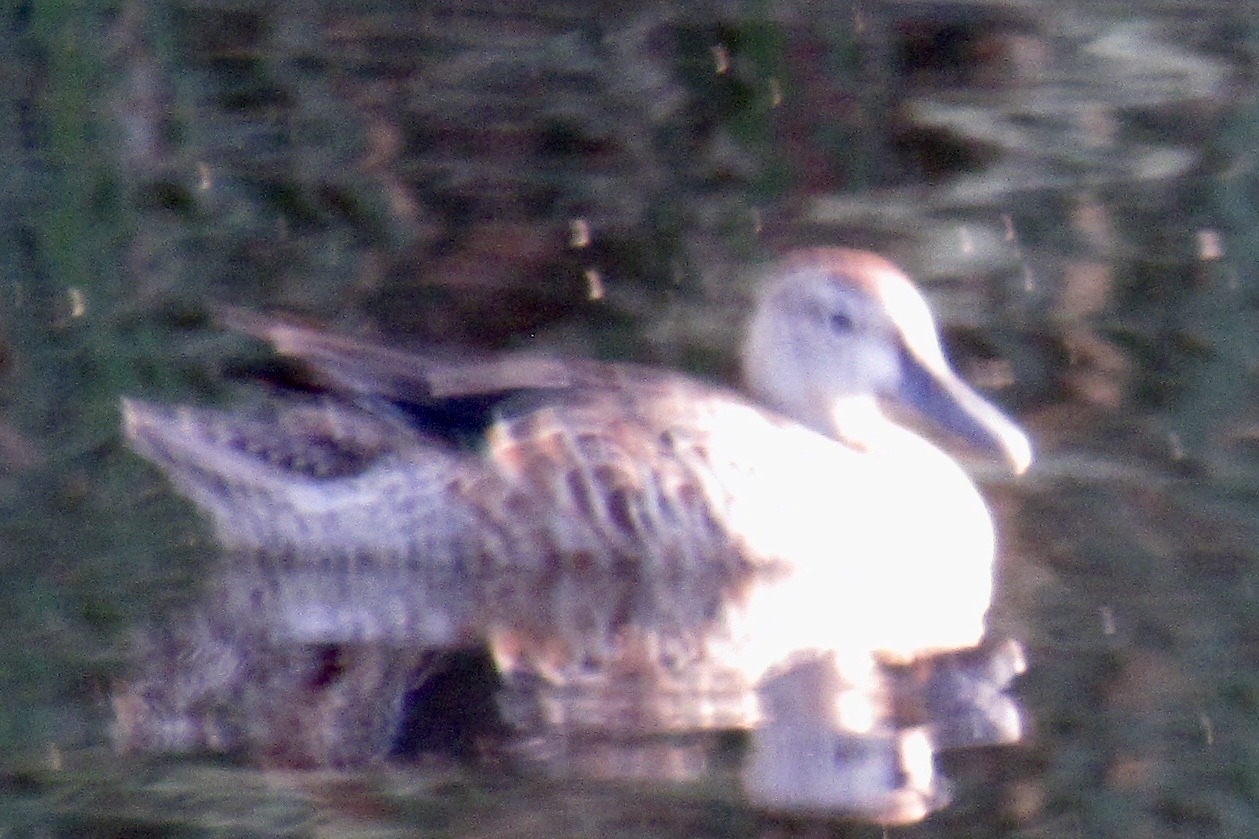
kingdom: Animalia
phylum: Chordata
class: Aves
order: Anseriformes
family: Anatidae
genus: Spatula
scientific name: Spatula discors
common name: Blue-winged teal
